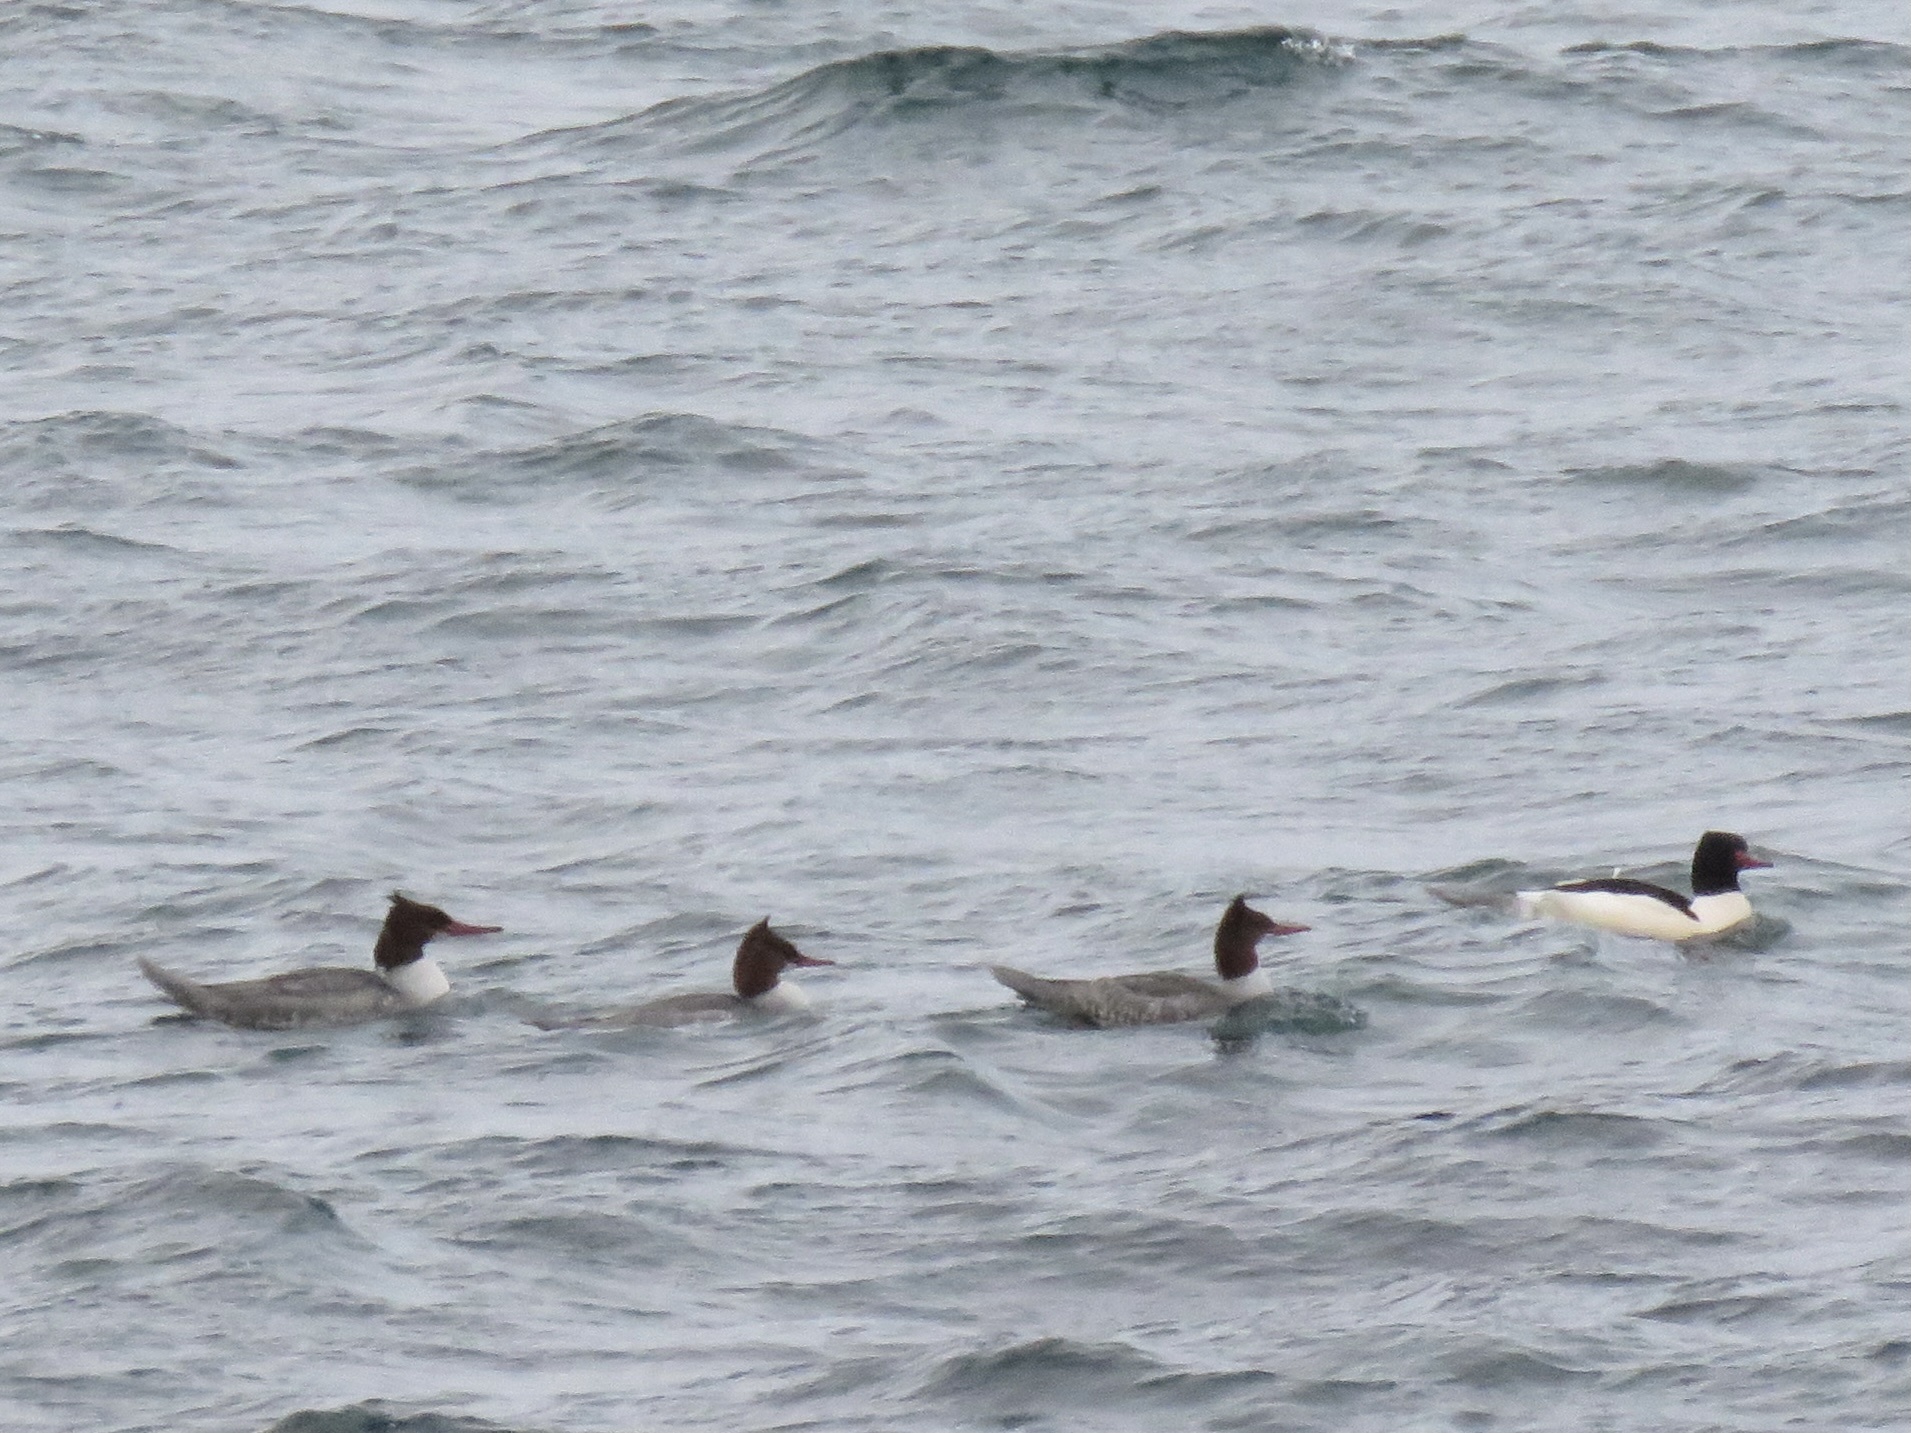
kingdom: Animalia
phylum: Chordata
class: Aves
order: Anseriformes
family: Anatidae
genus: Mergus
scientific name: Mergus merganser
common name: Common merganser
